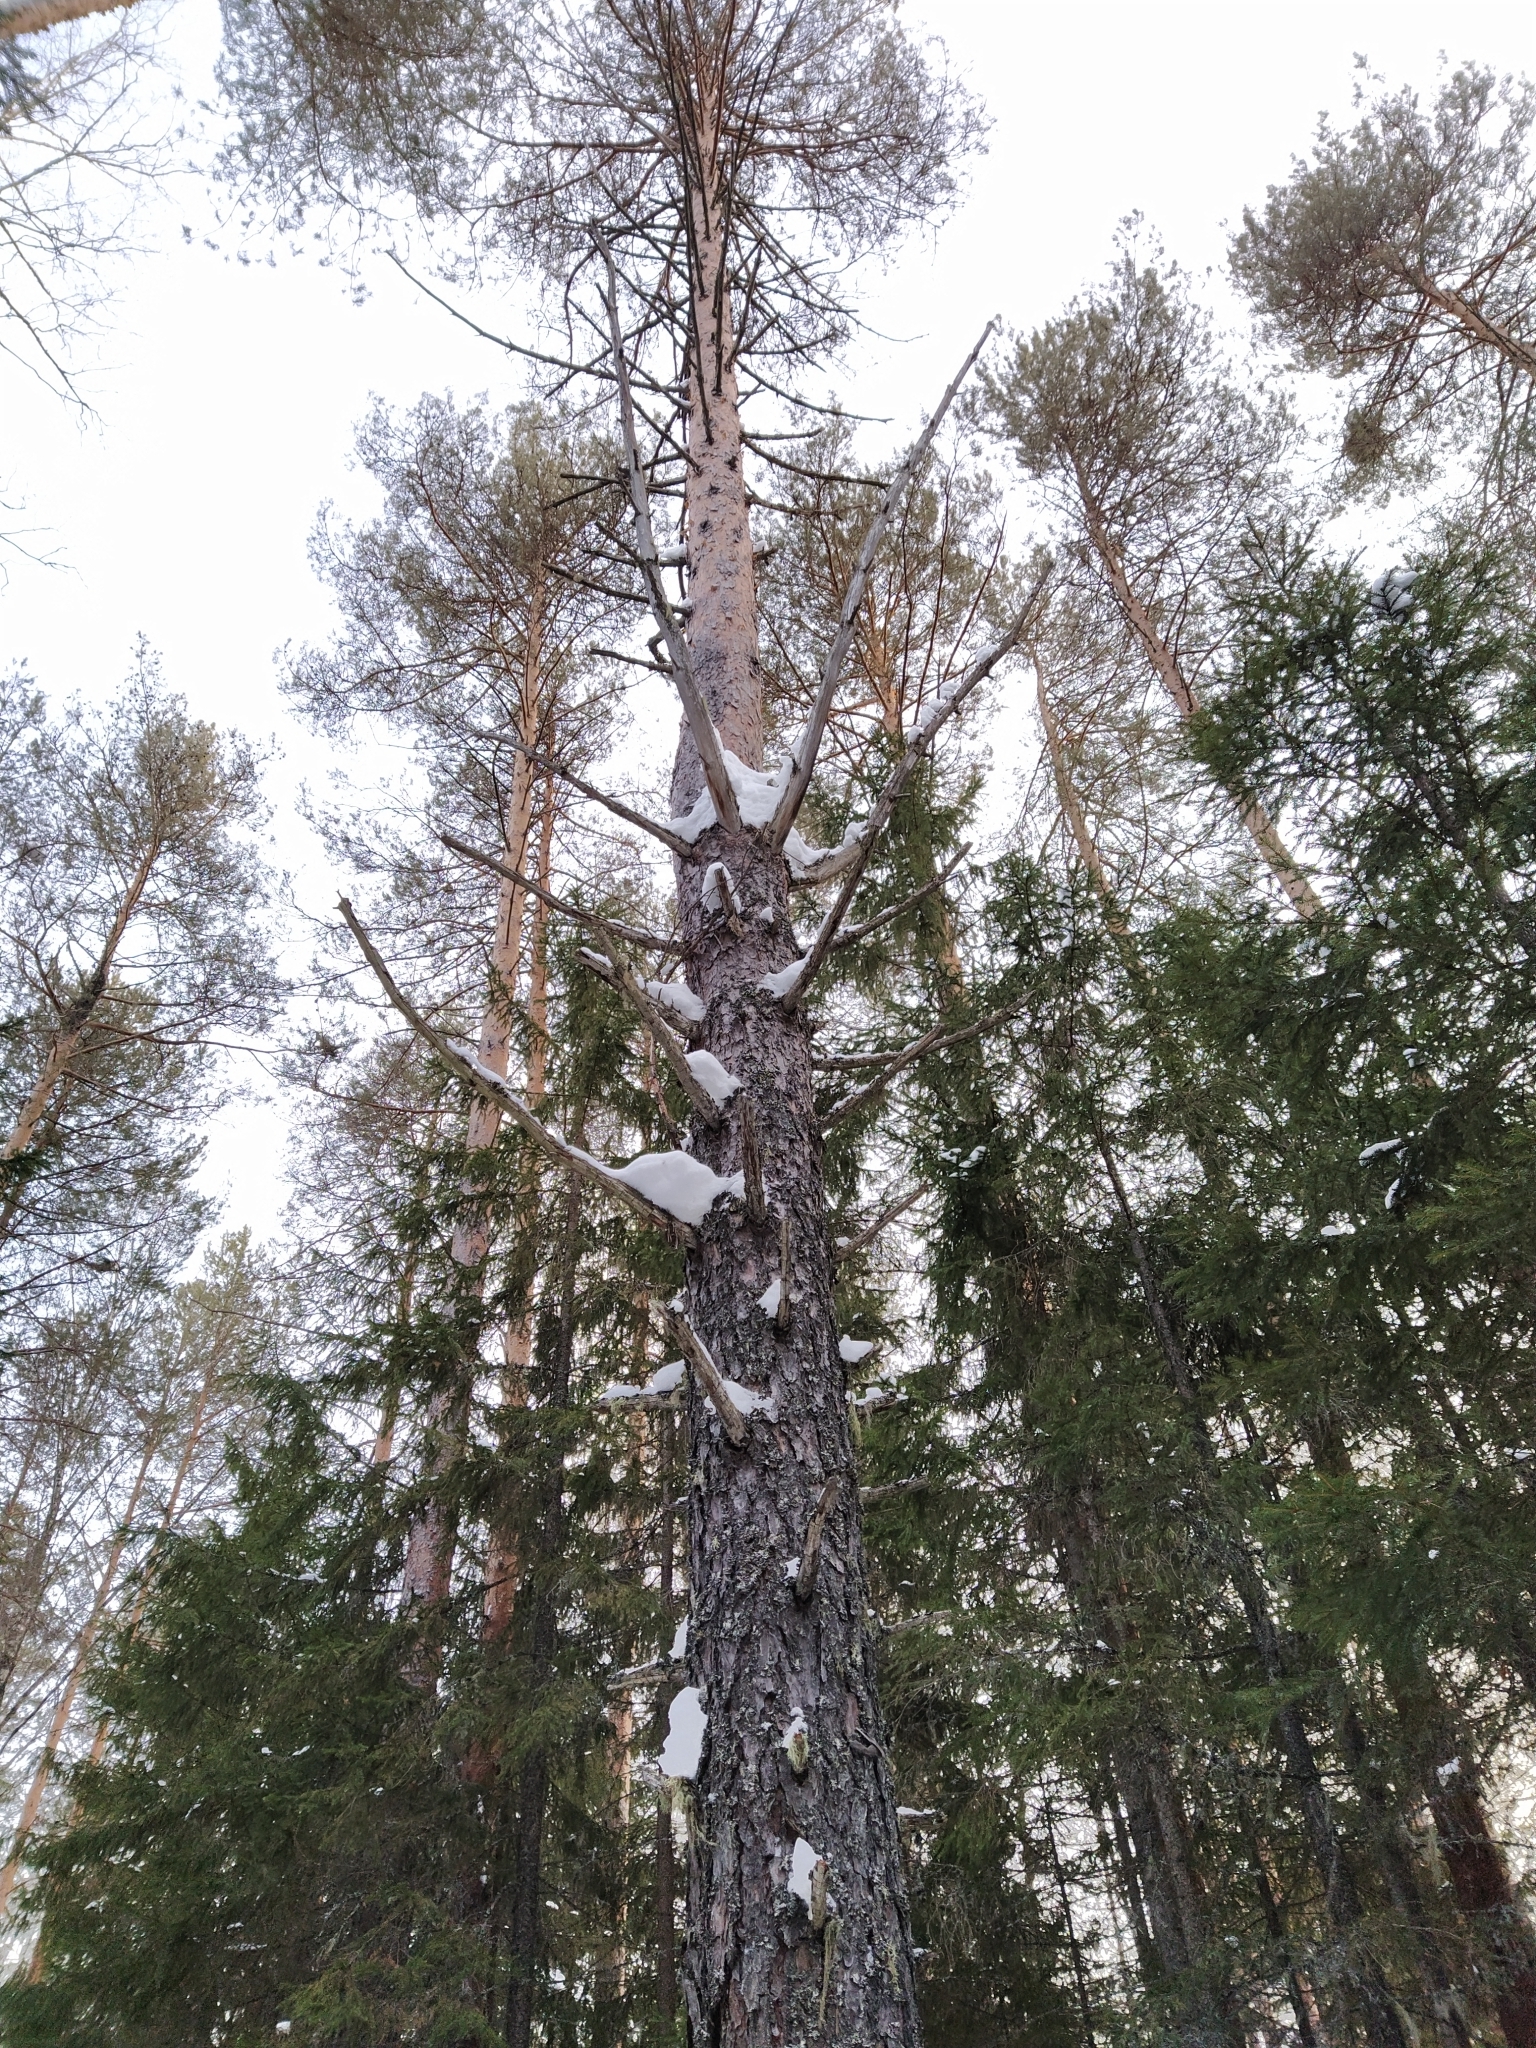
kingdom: Plantae
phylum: Tracheophyta
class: Pinopsida
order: Pinales
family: Pinaceae
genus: Pinus
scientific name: Pinus sylvestris
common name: Scots pine
